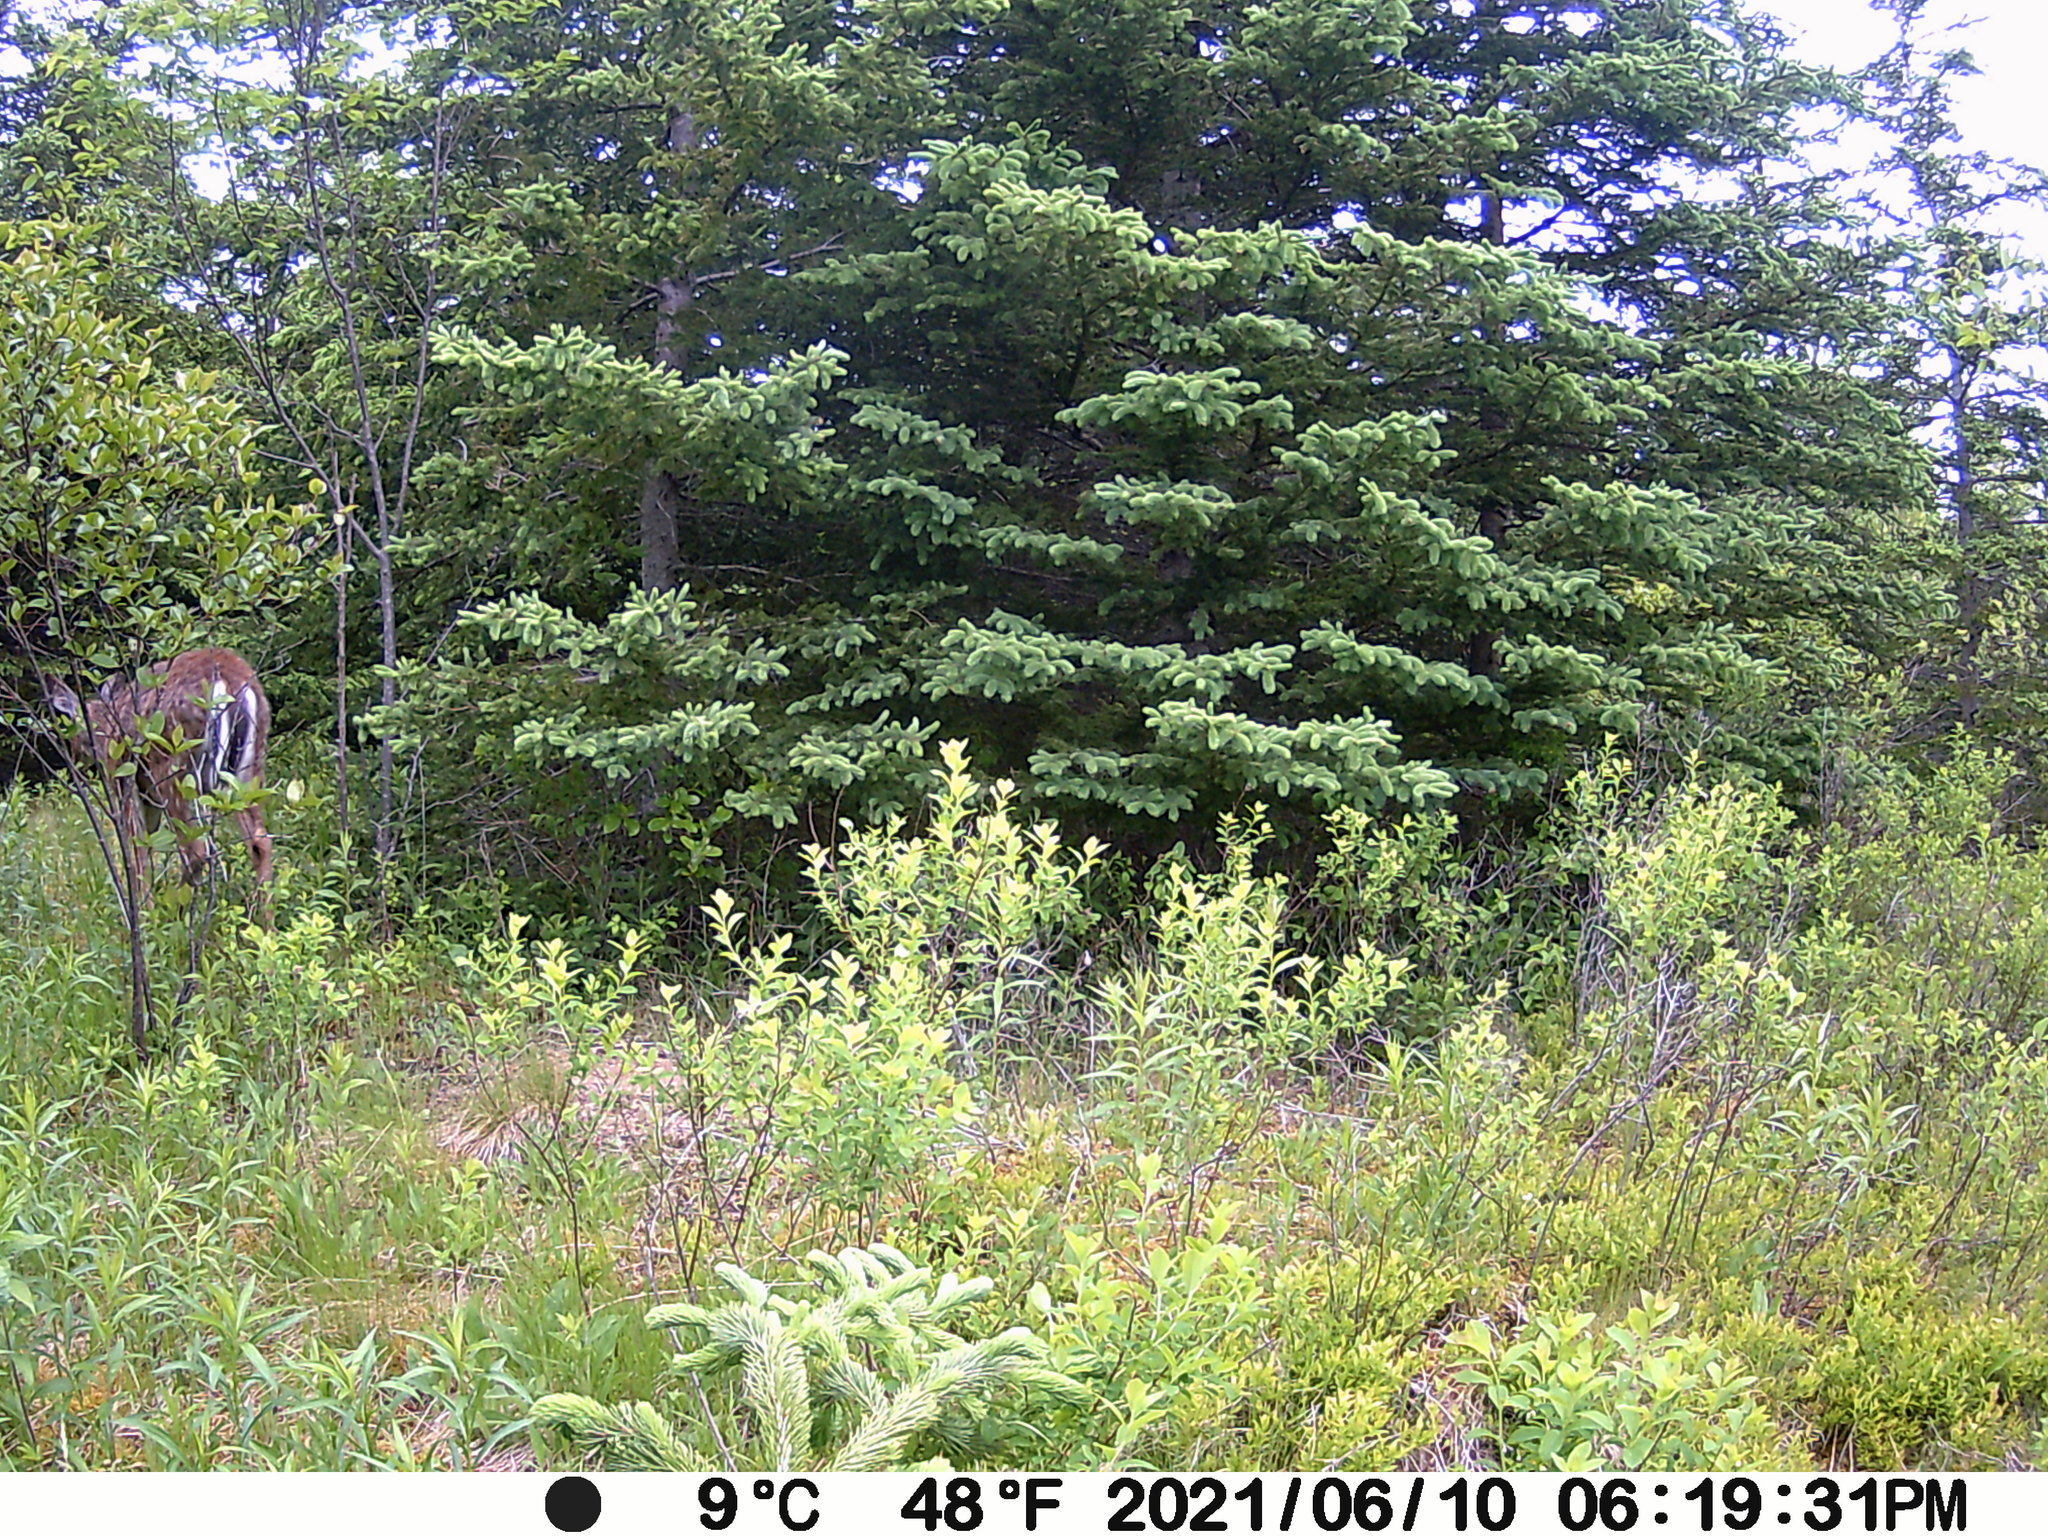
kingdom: Animalia
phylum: Chordata
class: Mammalia
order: Artiodactyla
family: Cervidae
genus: Odocoileus
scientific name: Odocoileus virginianus
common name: White-tailed deer
